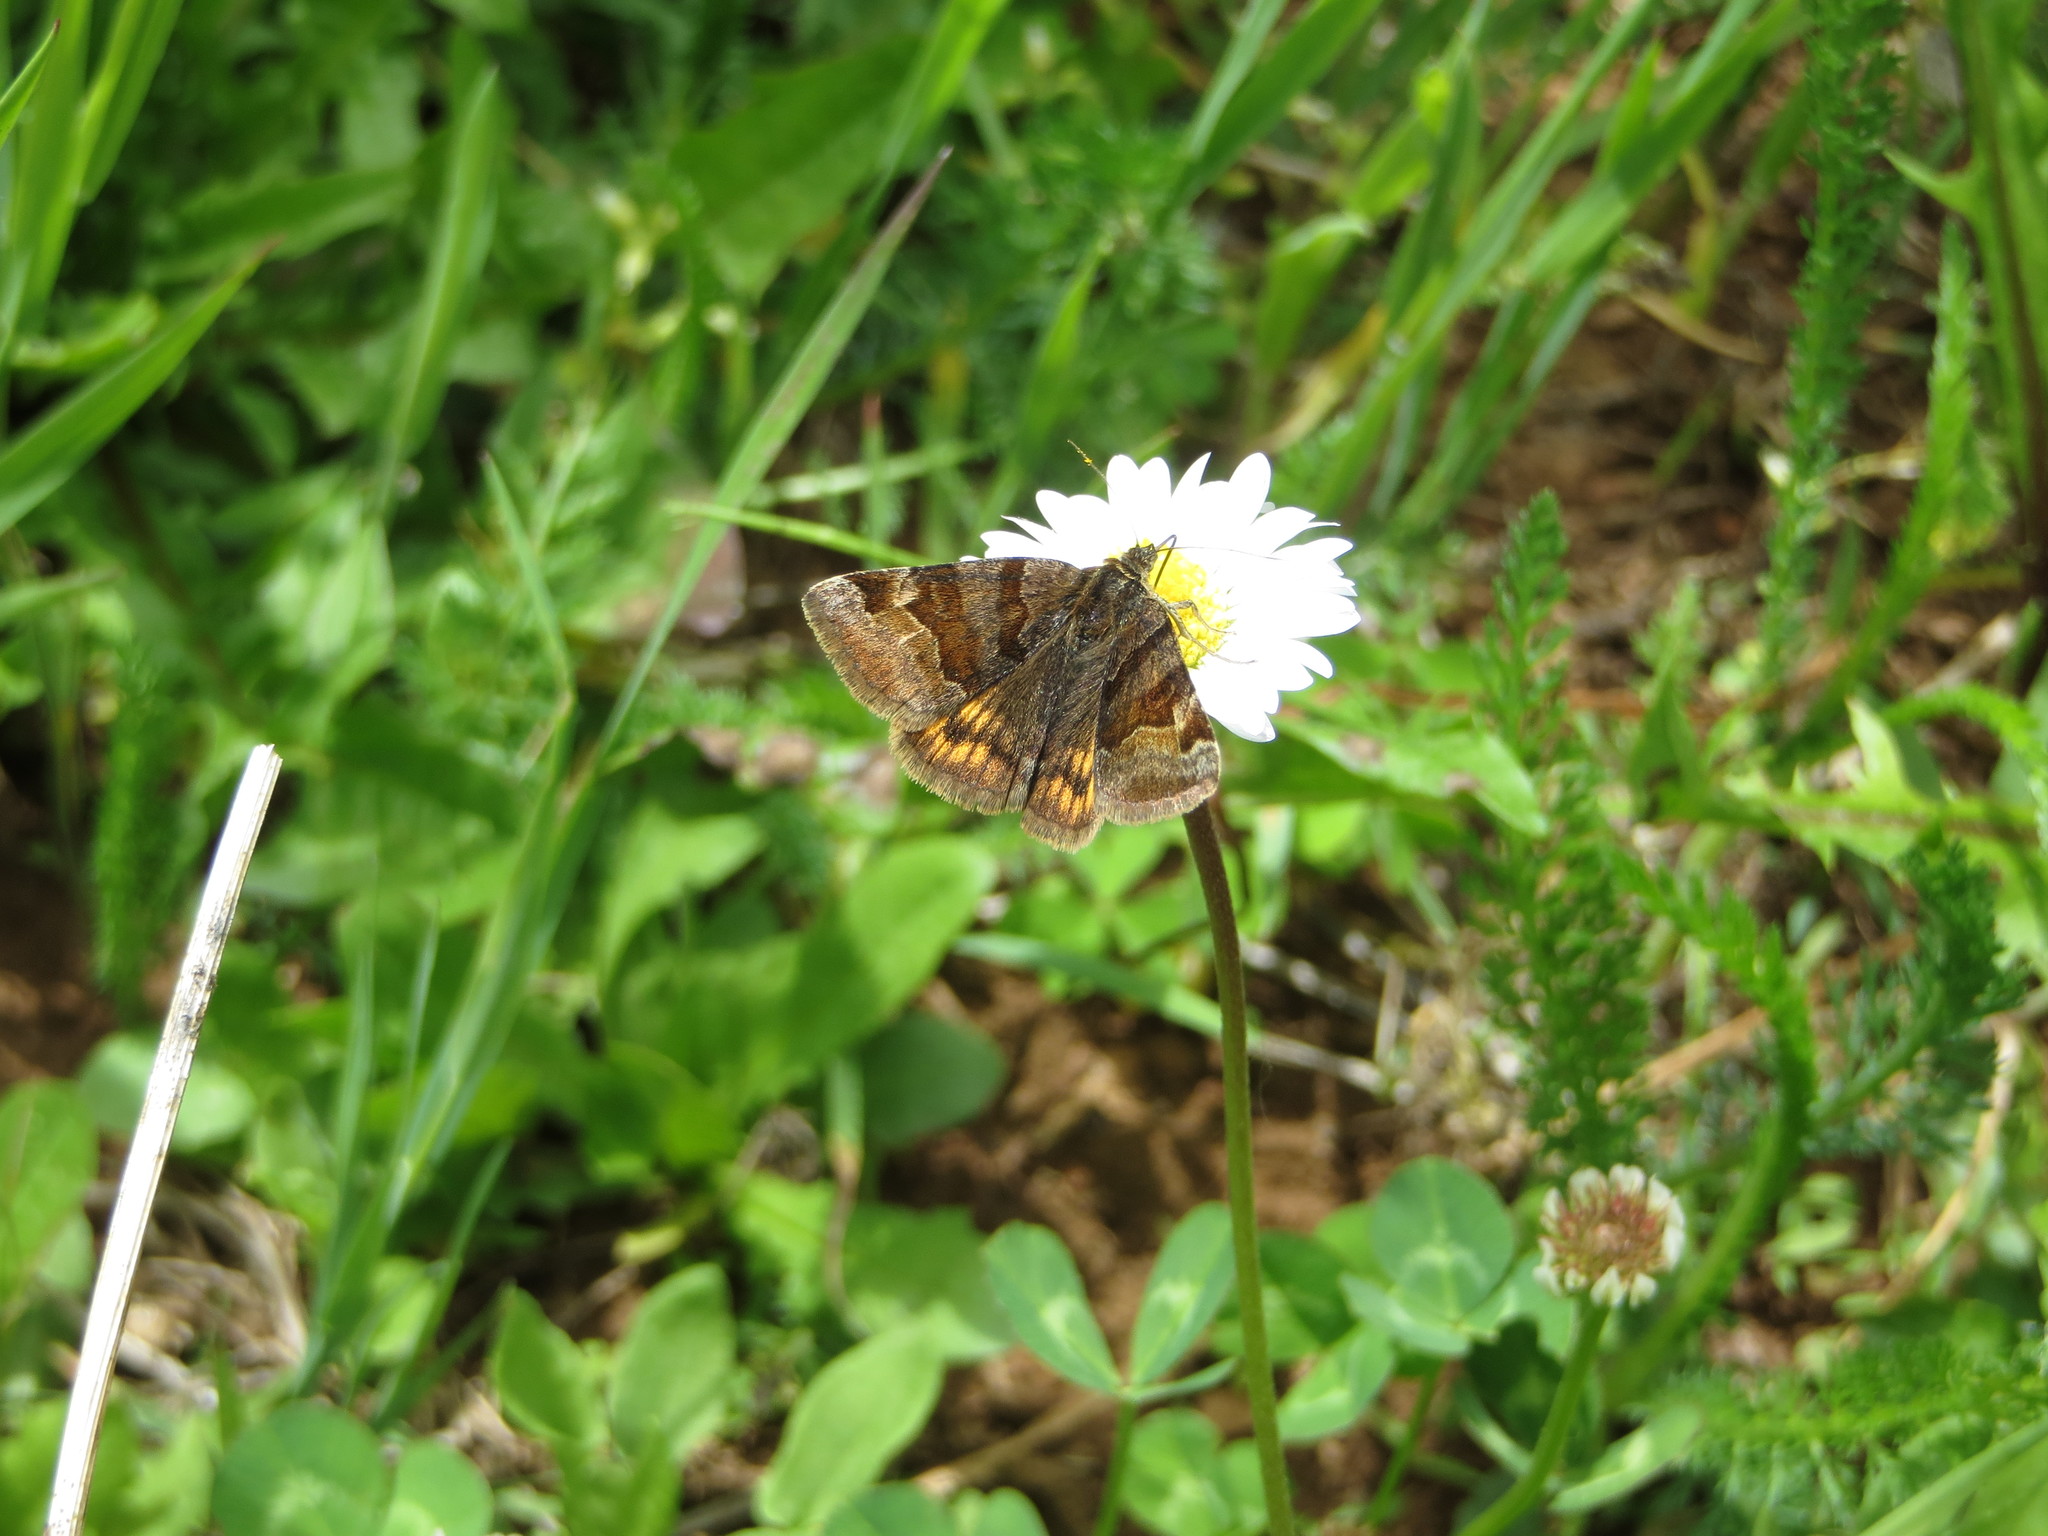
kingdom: Animalia
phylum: Arthropoda
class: Insecta
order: Lepidoptera
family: Erebidae
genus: Euclidia
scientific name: Euclidia glyphica
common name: Burnet companion
